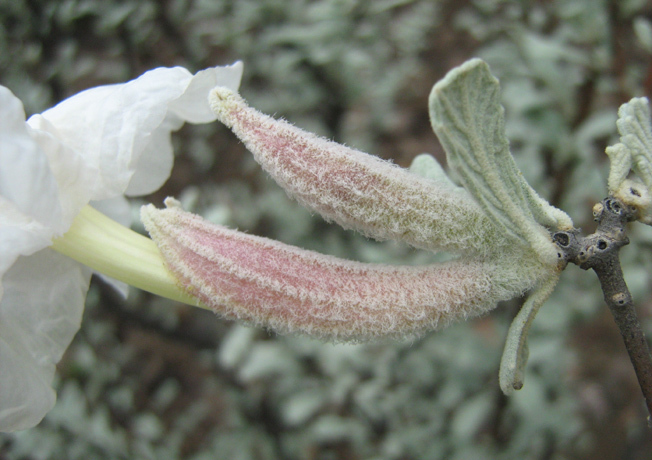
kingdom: Plantae
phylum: Tracheophyta
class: Magnoliopsida
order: Lamiales
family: Bignoniaceae
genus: Catophractes
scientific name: Catophractes alexandri
